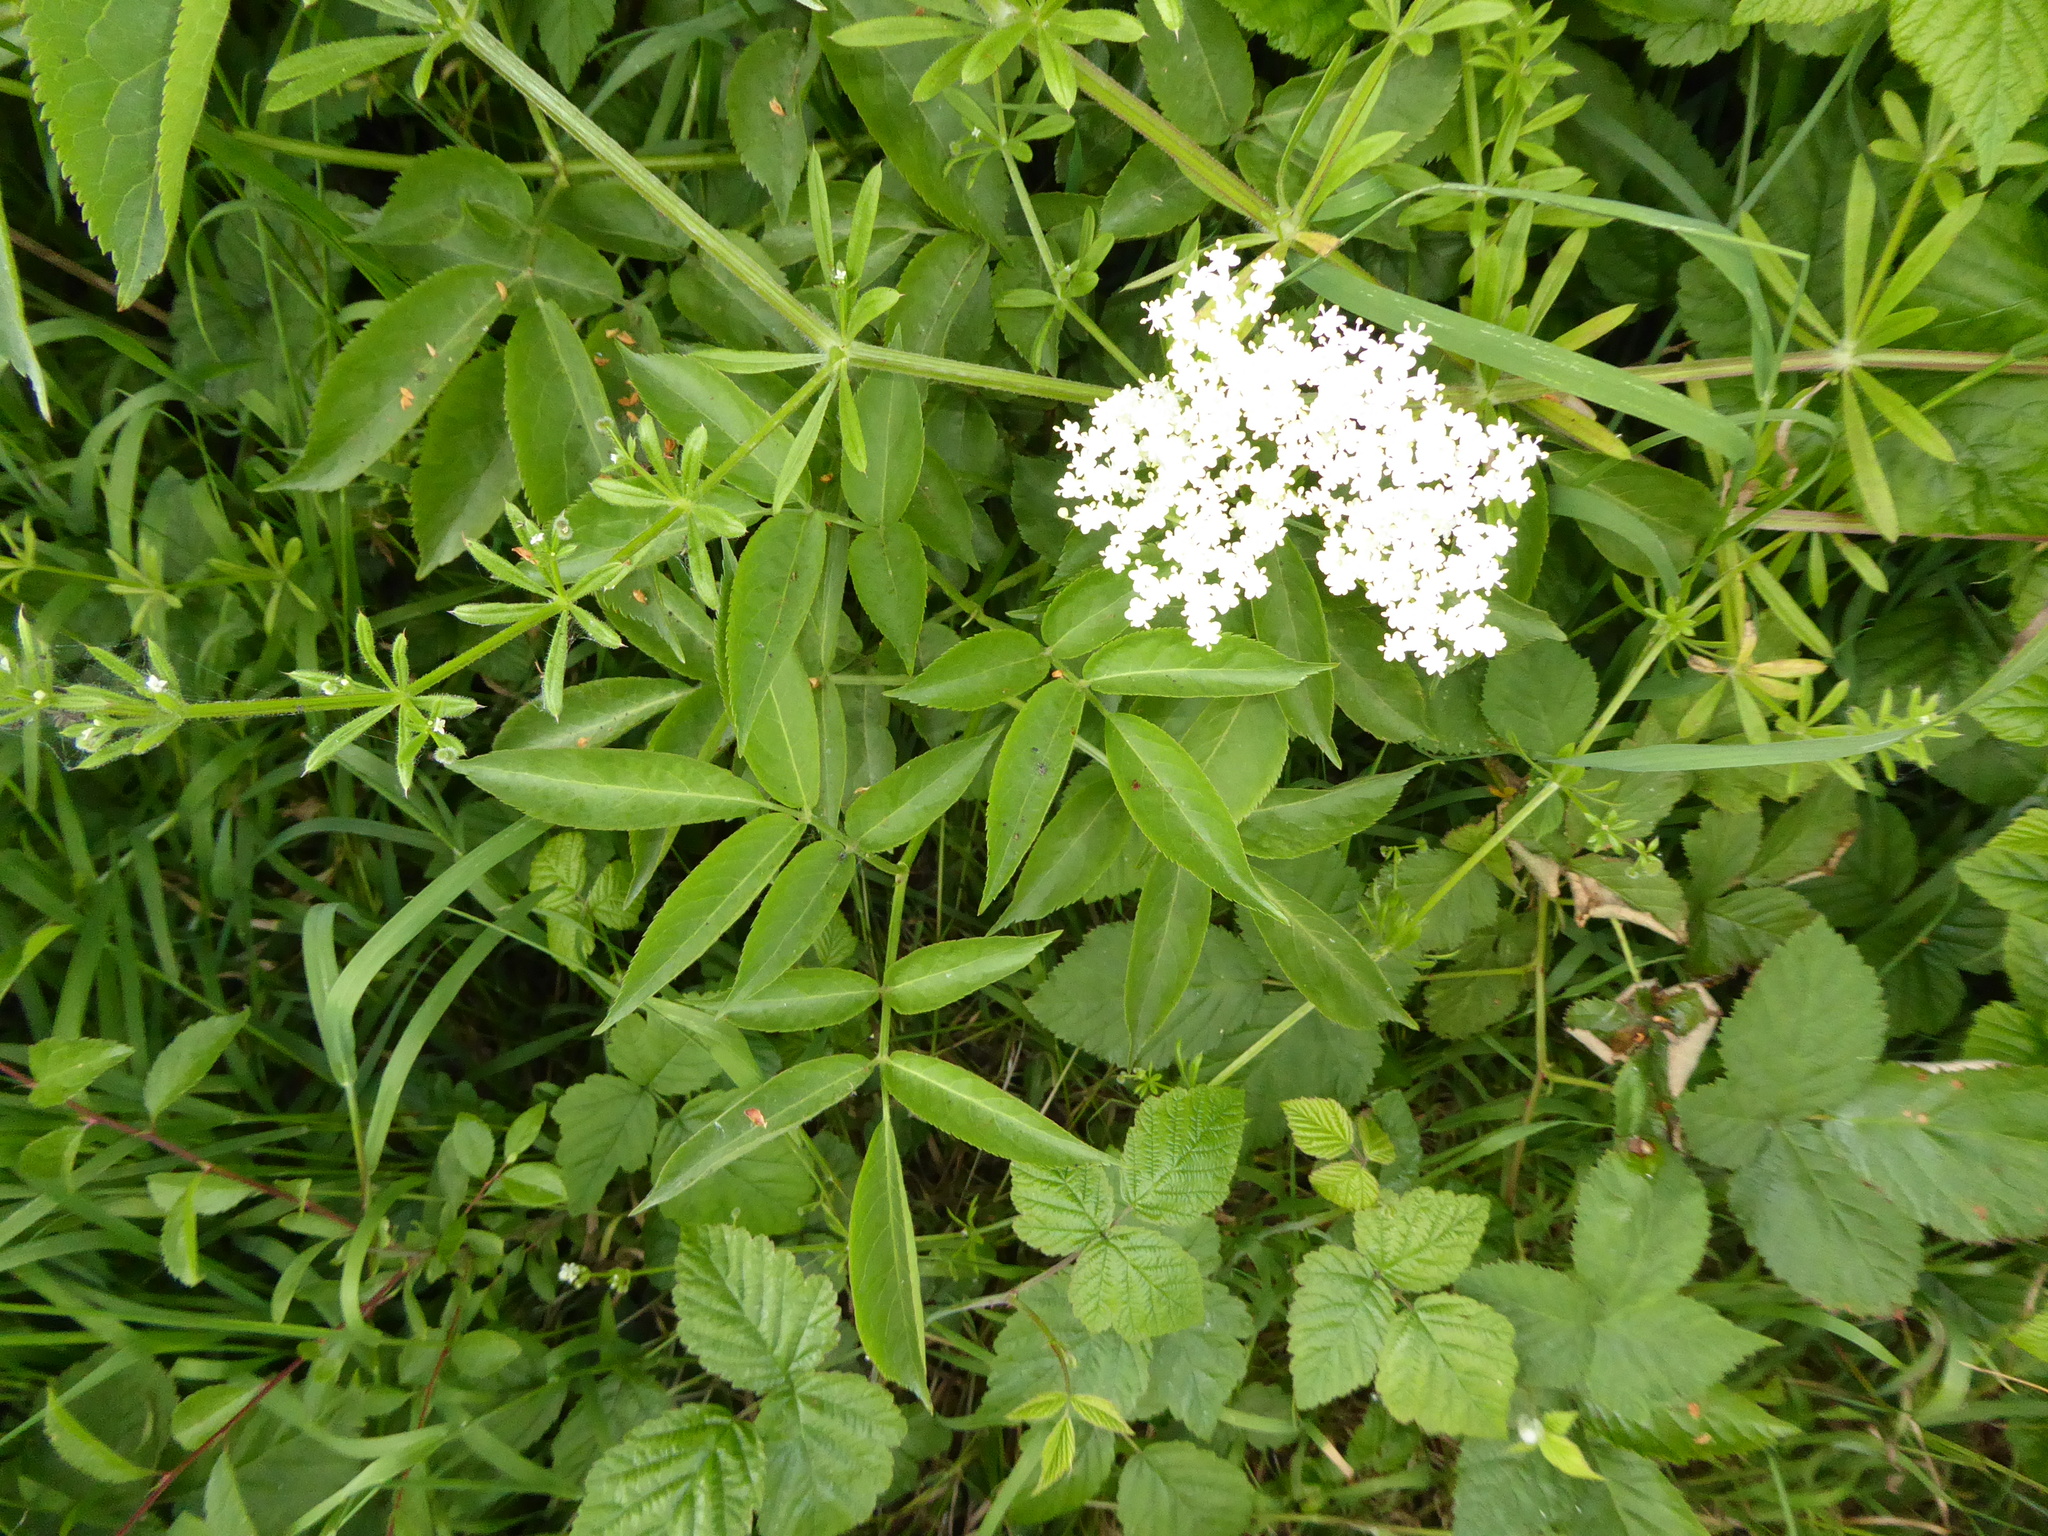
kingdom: Plantae
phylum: Tracheophyta
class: Magnoliopsida
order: Dipsacales
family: Viburnaceae
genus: Sambucus
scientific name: Sambucus nigra
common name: Elder
